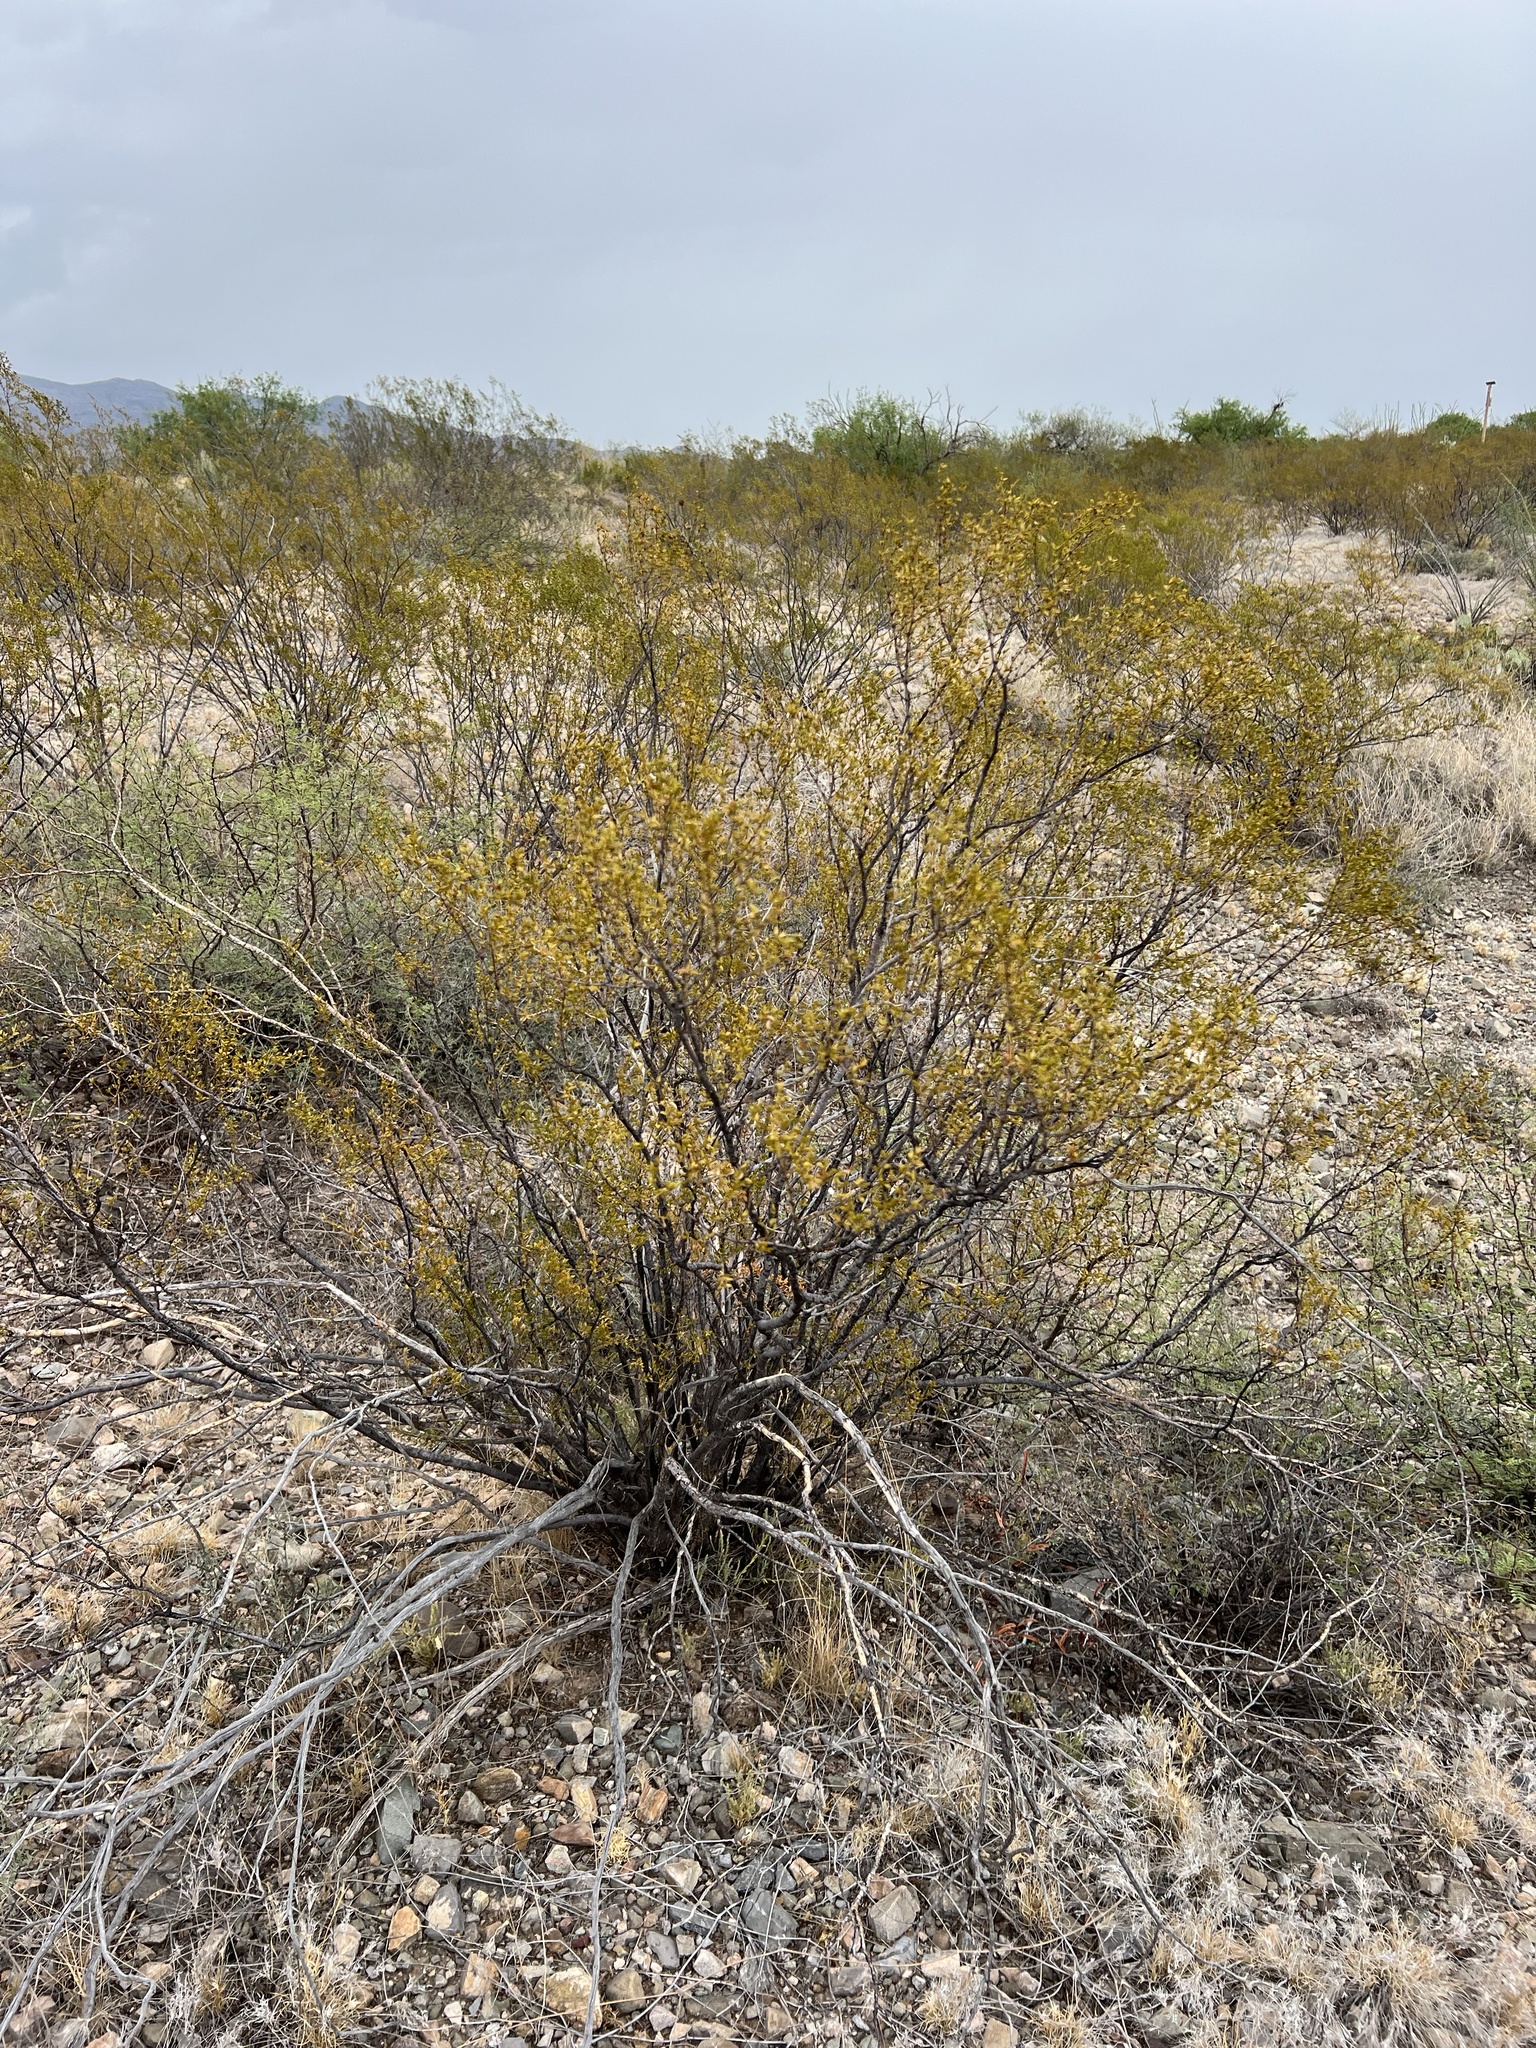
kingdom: Plantae
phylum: Tracheophyta
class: Magnoliopsida
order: Zygophyllales
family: Zygophyllaceae
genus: Larrea
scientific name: Larrea tridentata
